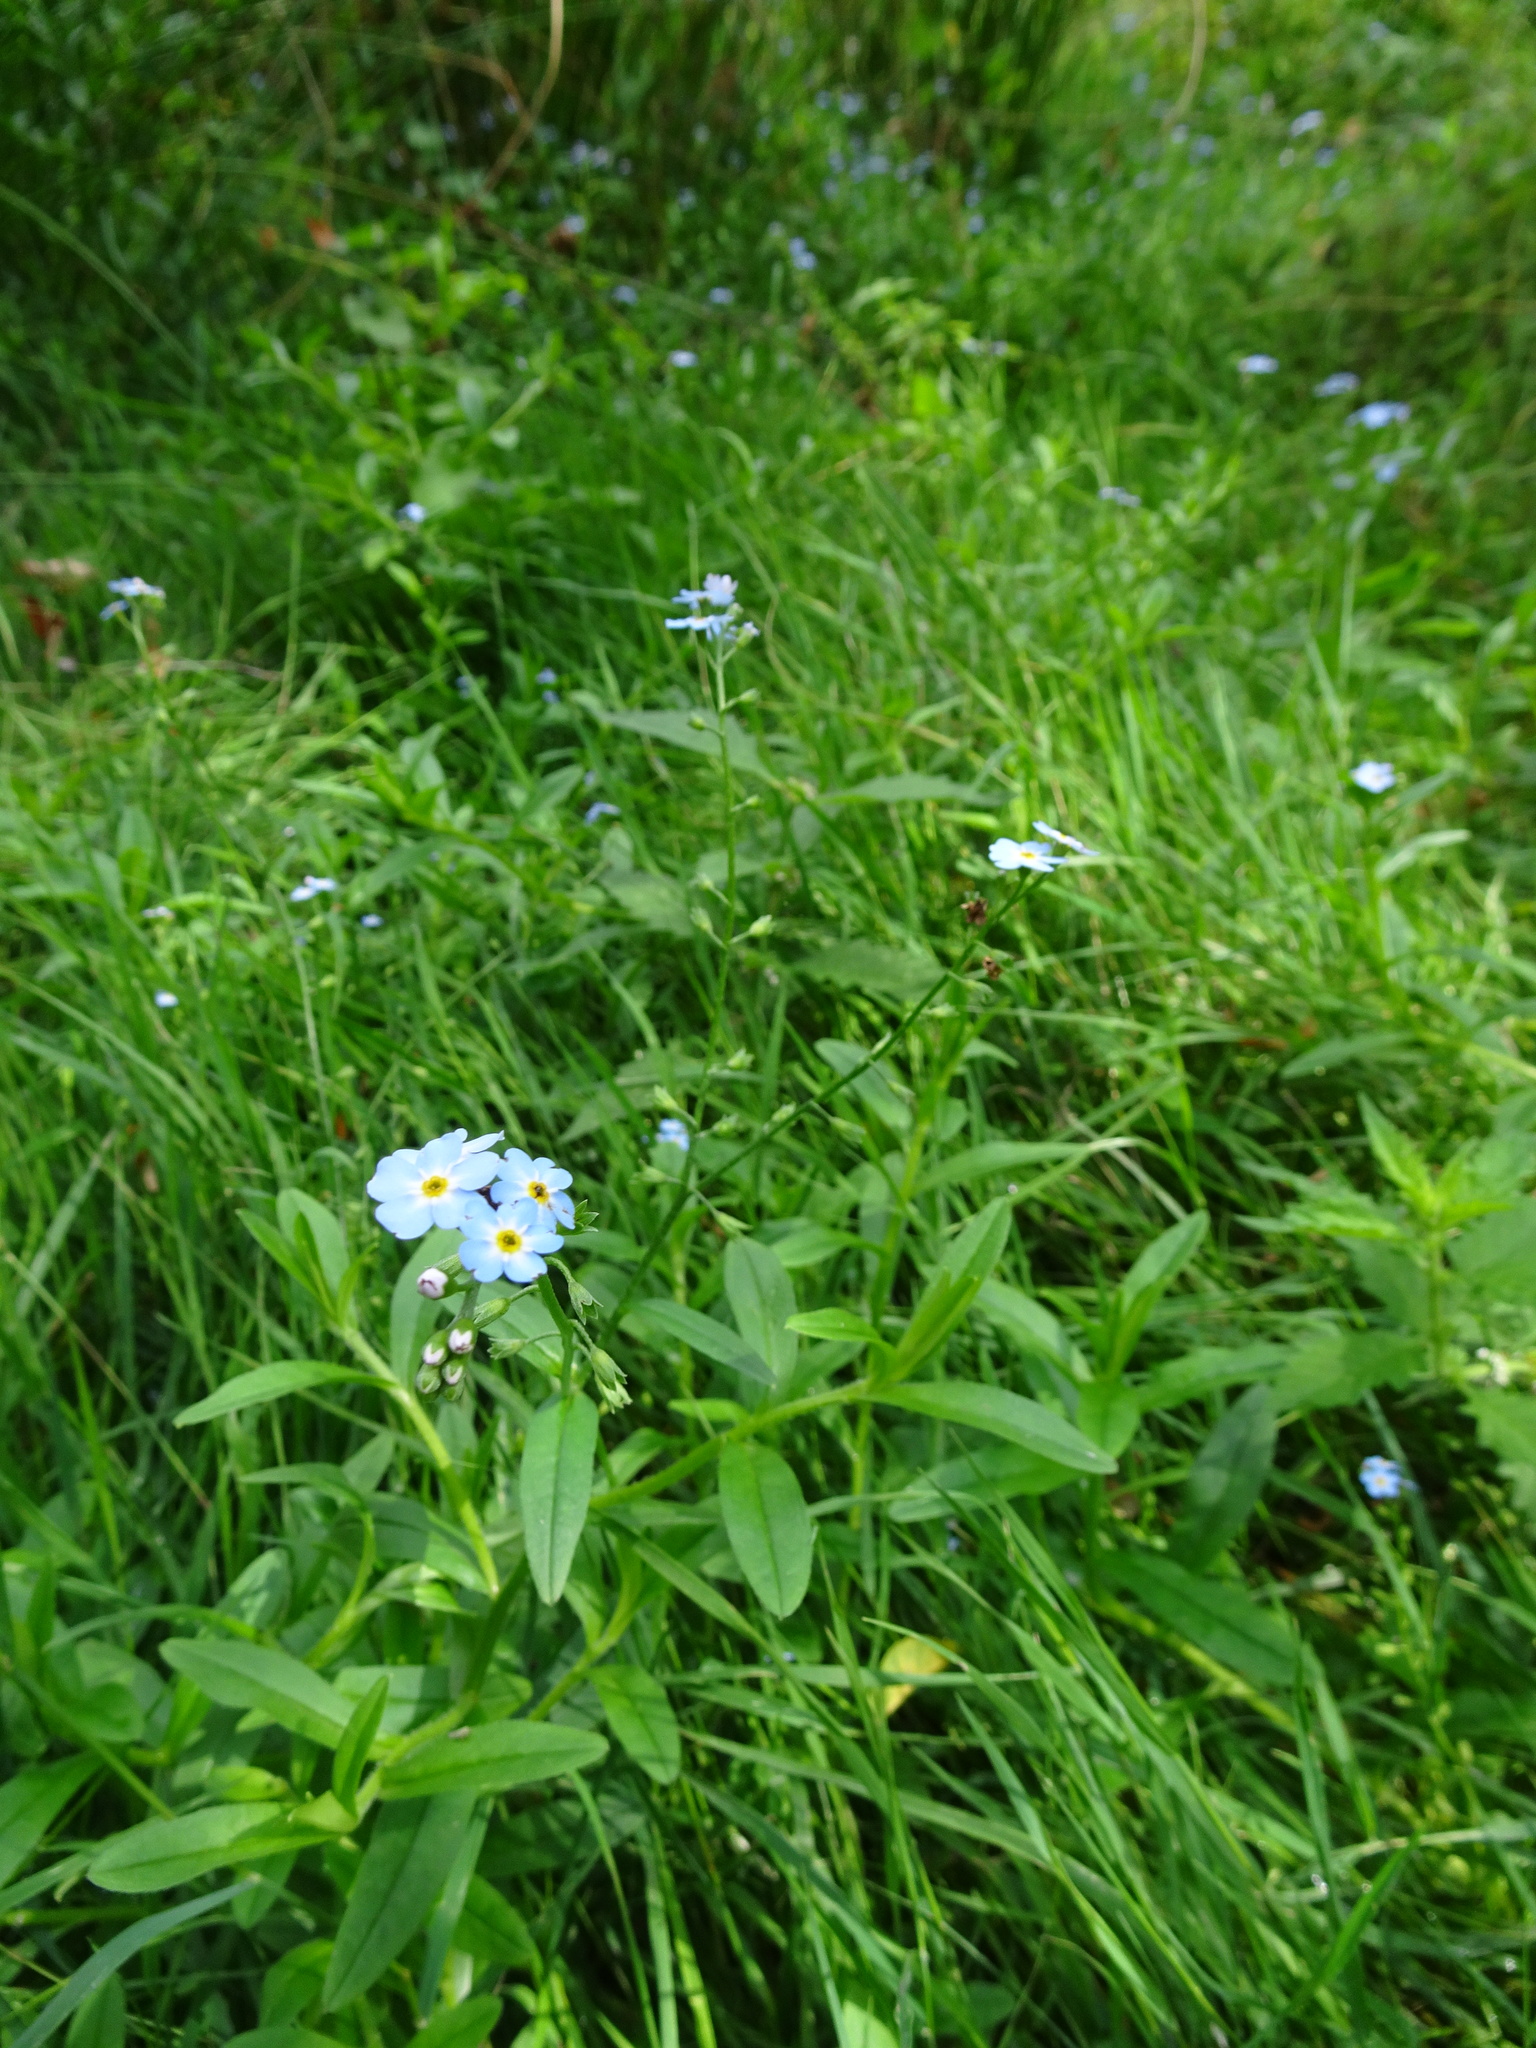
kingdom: Plantae
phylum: Tracheophyta
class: Magnoliopsida
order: Boraginales
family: Boraginaceae
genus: Myosotis
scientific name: Myosotis scorpioides
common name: Water forget-me-not
